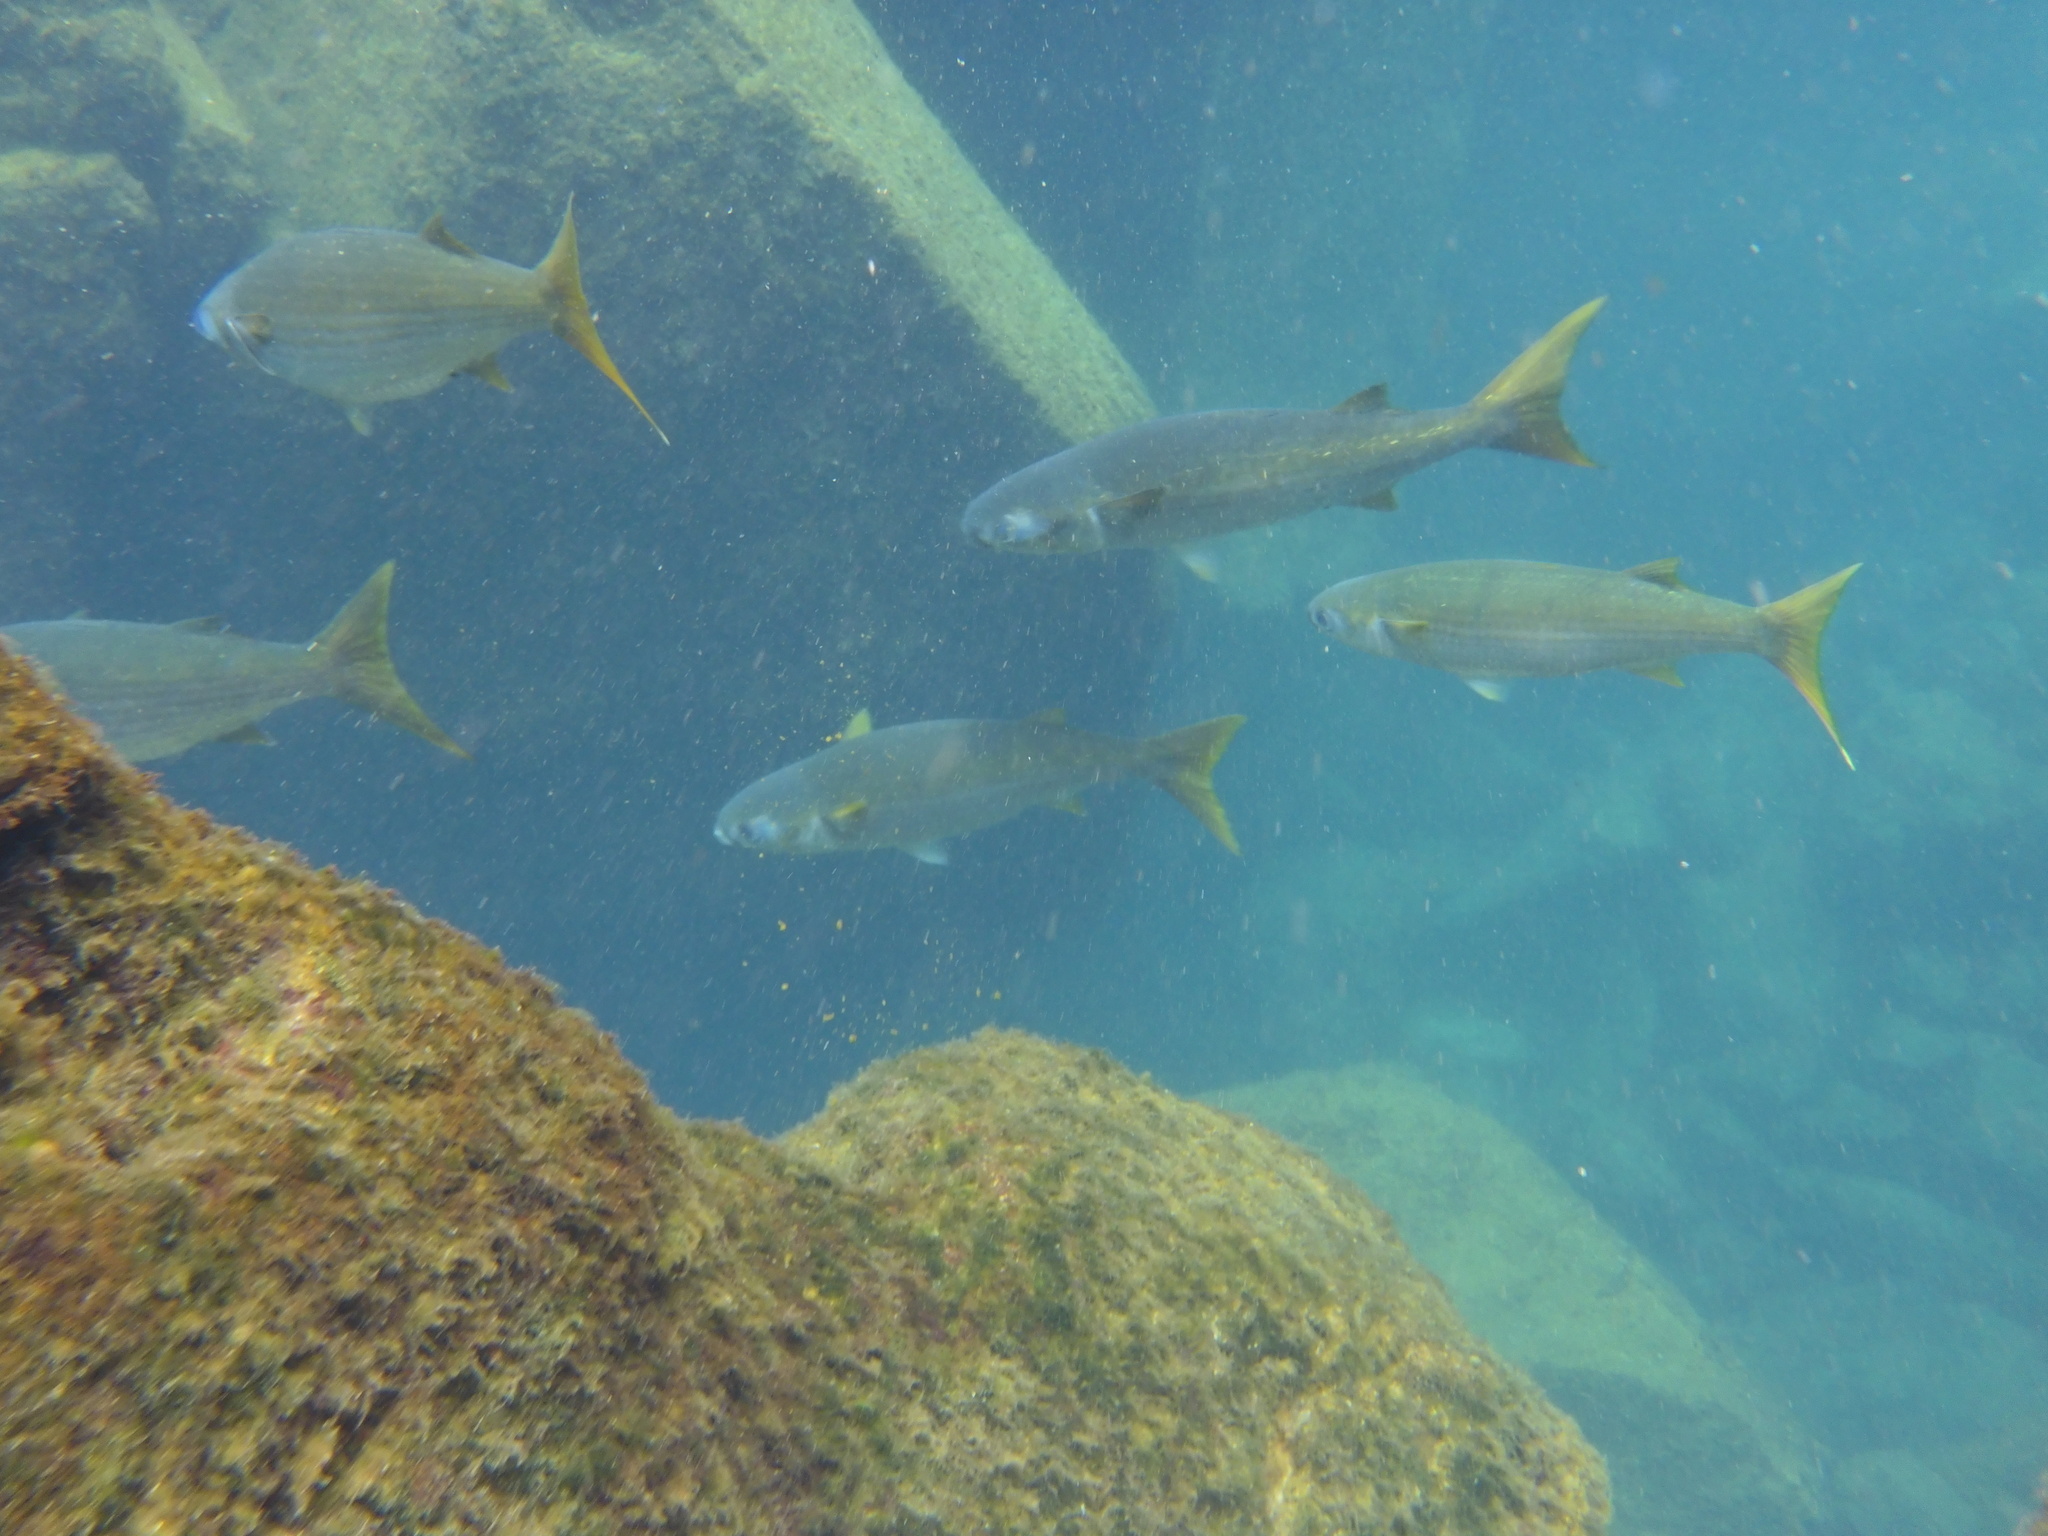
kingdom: Animalia
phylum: Chordata
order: Mugiliformes
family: Mugilidae
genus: Mugil
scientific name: Mugil cephalus
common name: Grey mullet
